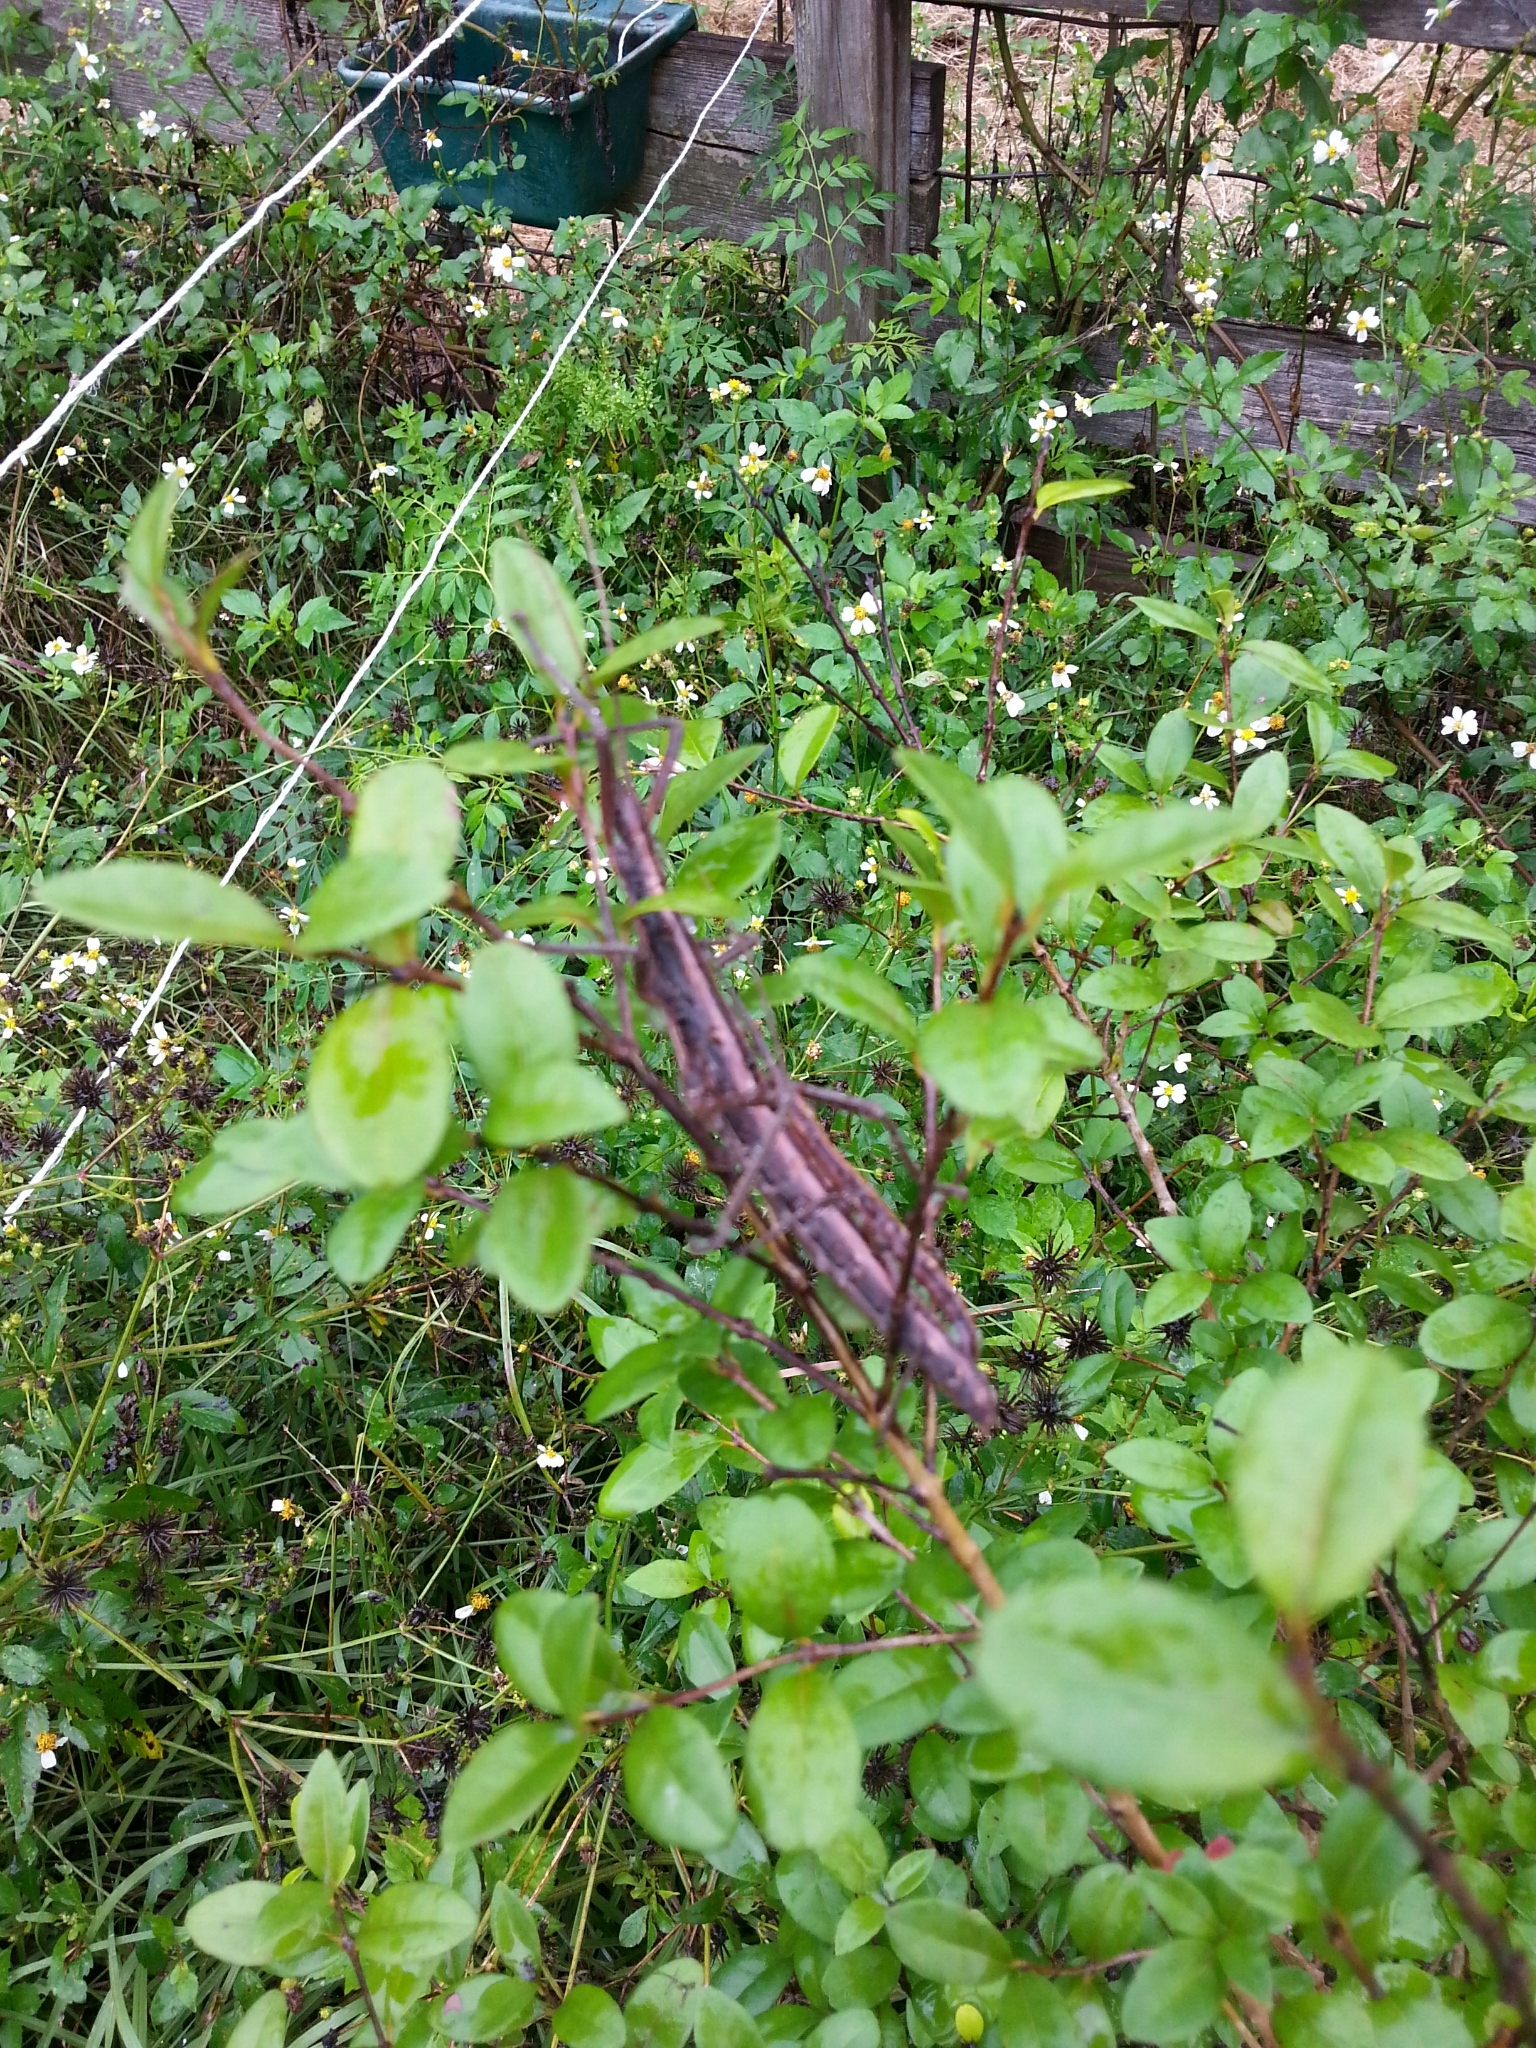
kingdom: Animalia
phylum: Arthropoda
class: Insecta
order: Phasmida
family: Pseudophasmatidae
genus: Anisomorpha
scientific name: Anisomorpha buprestoides
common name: Florida stick insect
